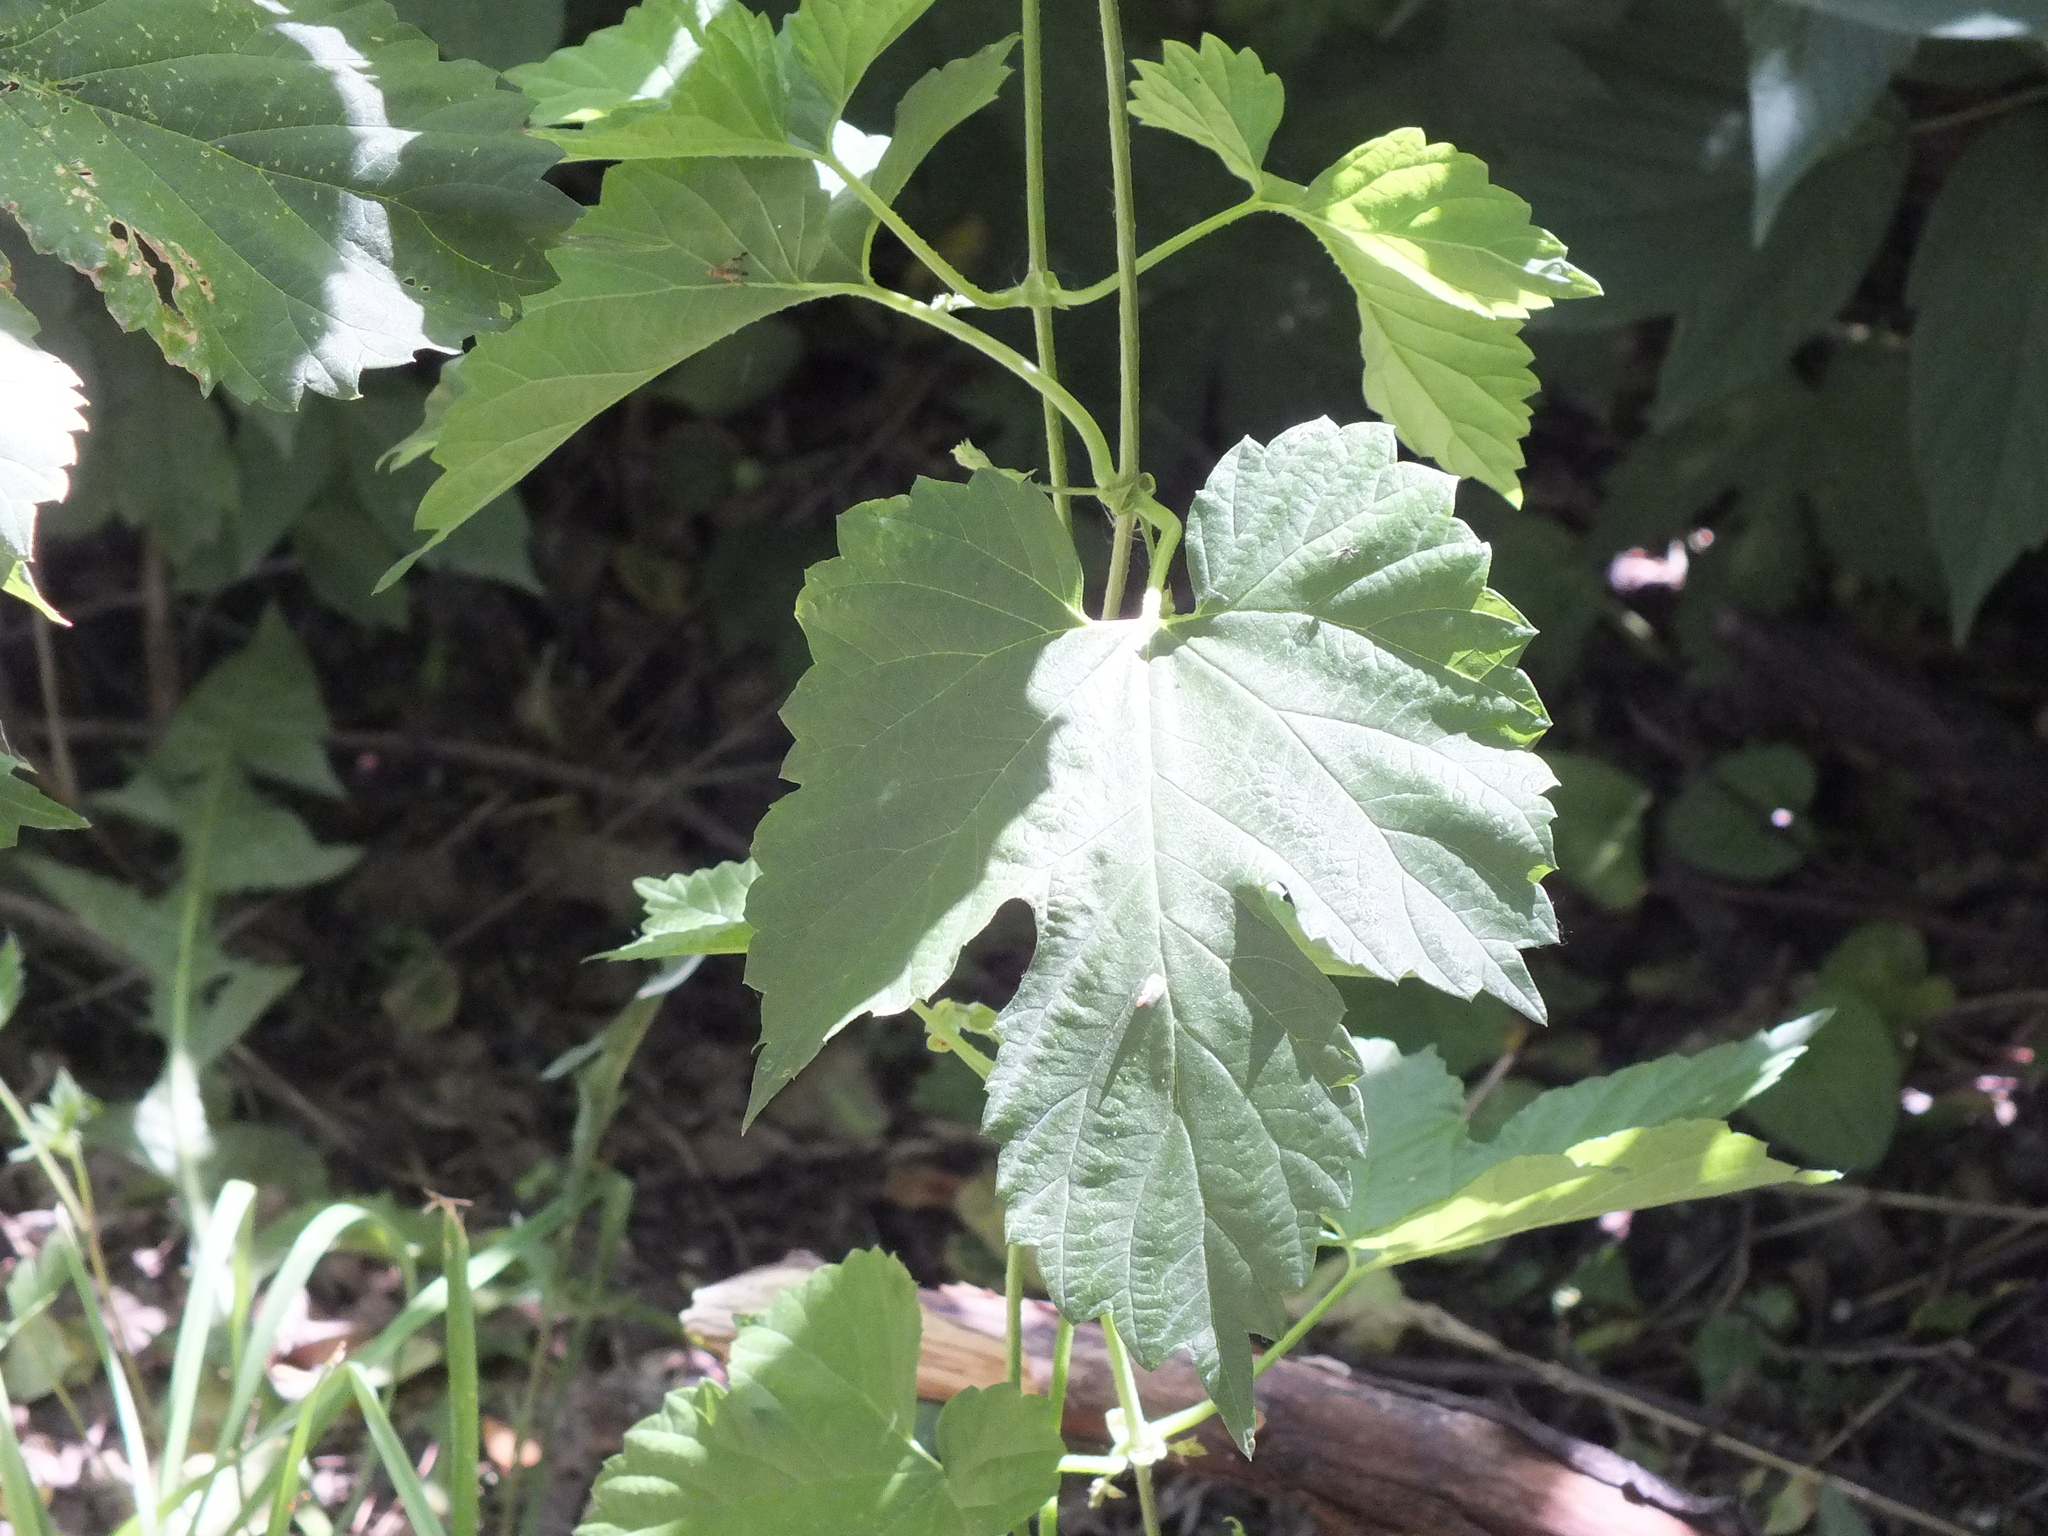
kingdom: Plantae
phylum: Tracheophyta
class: Magnoliopsida
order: Rosales
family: Cannabaceae
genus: Humulus
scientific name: Humulus lupulus
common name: Hop
